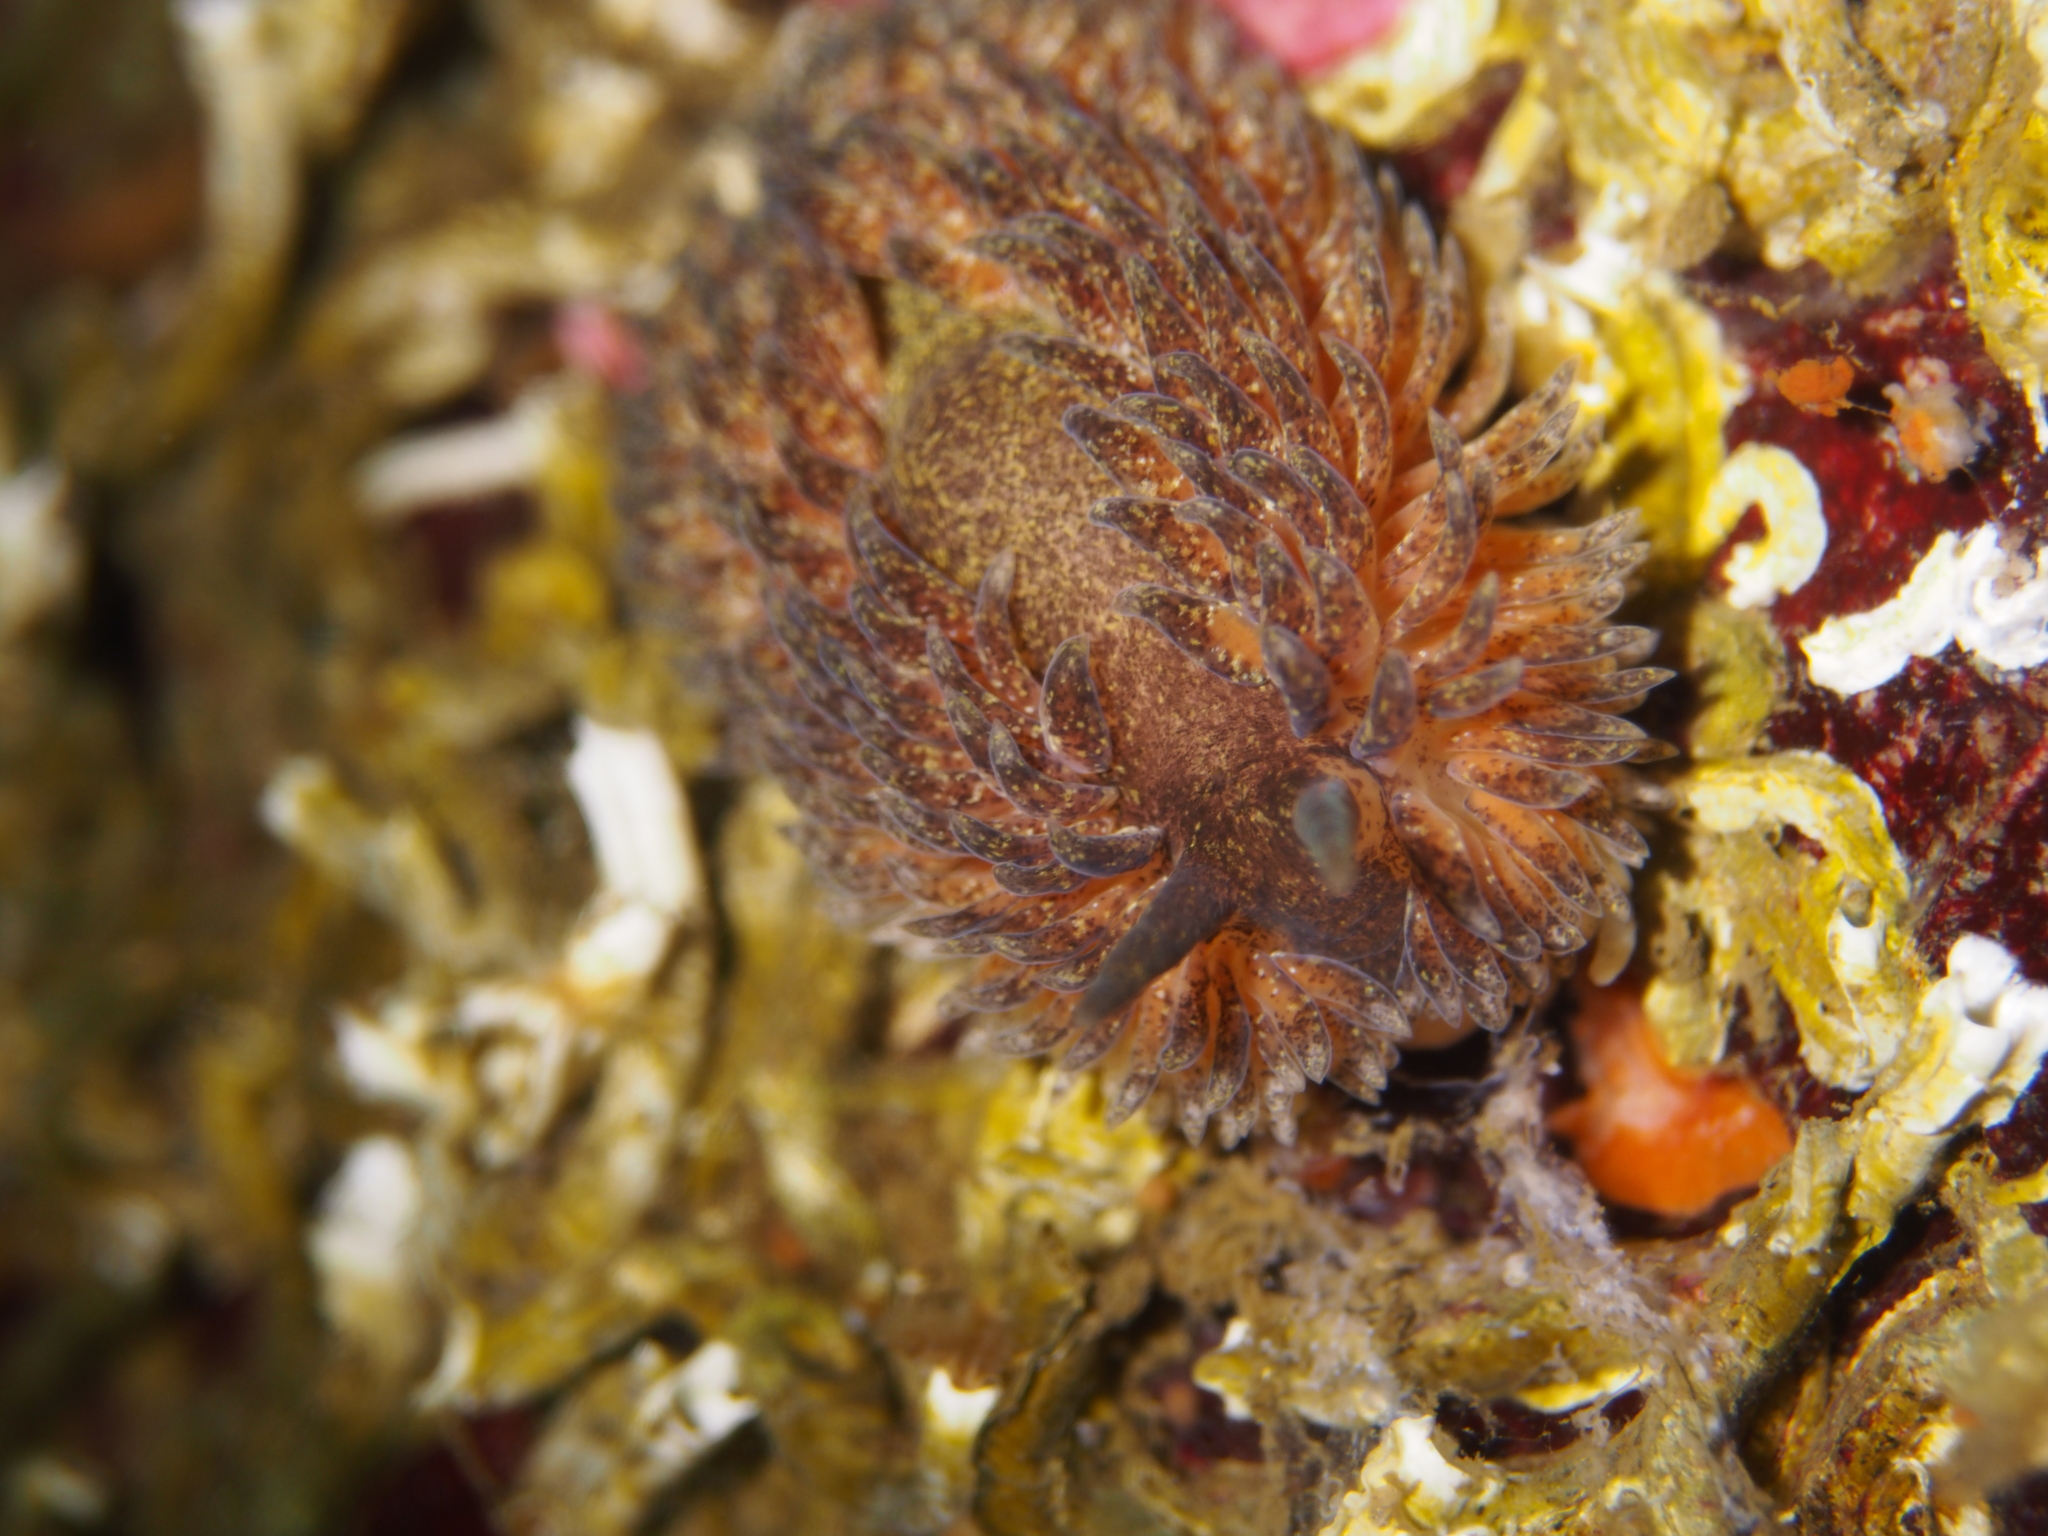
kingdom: Animalia
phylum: Mollusca
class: Gastropoda
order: Nudibranchia
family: Aeolidiidae
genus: Aeolidia
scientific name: Aeolidia papillosa
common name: Common grey sea slug
